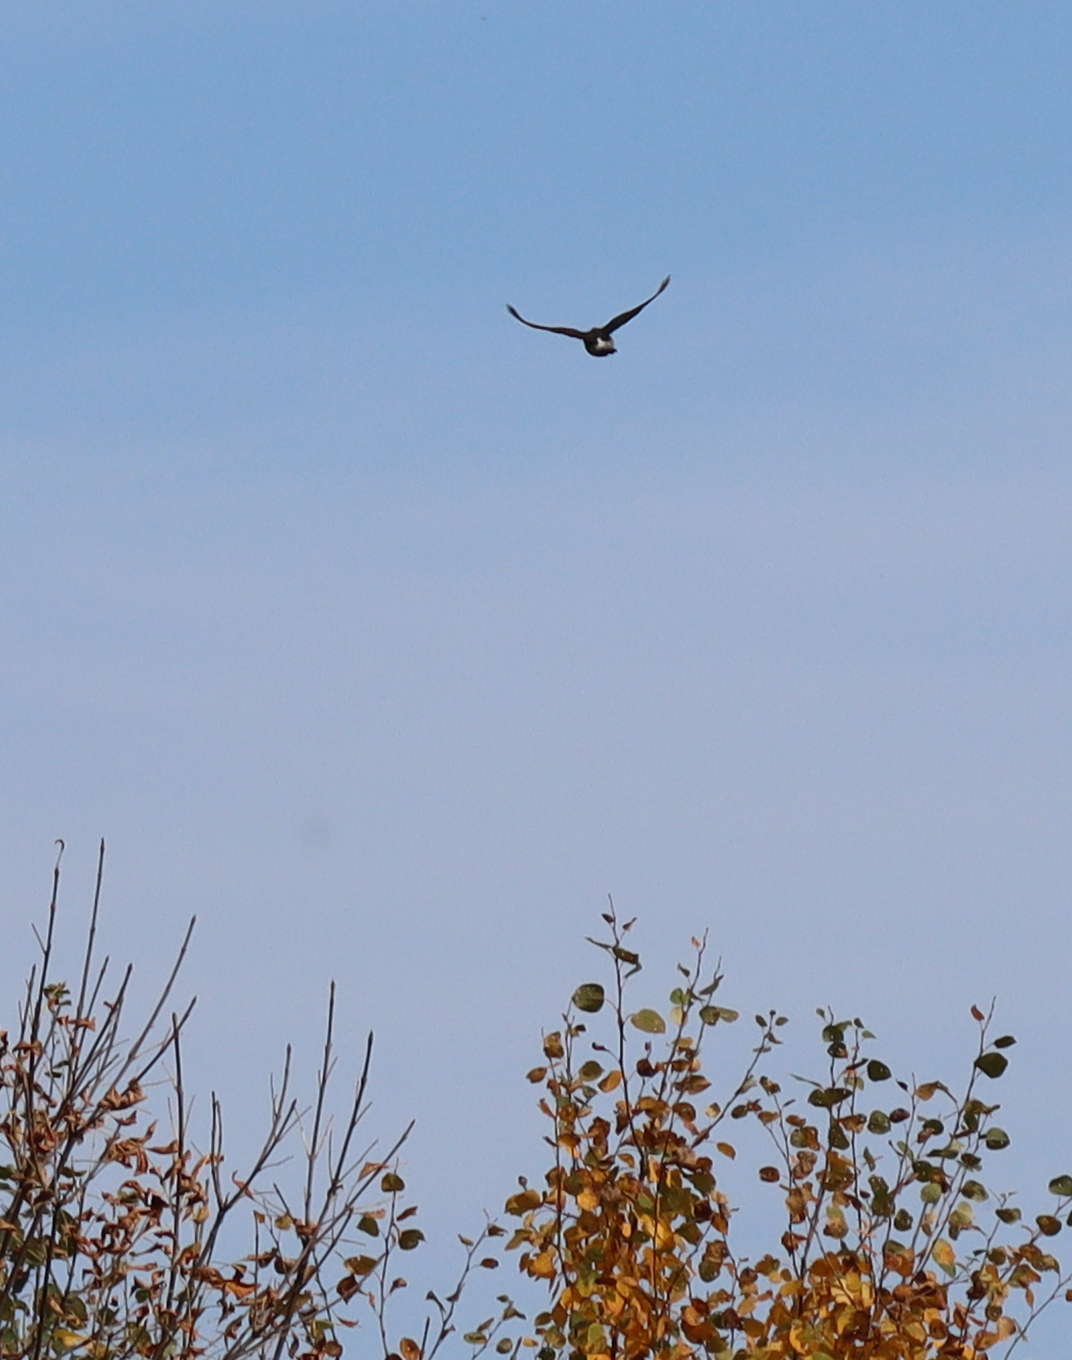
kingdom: Animalia
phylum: Chordata
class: Aves
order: Piciformes
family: Picidae
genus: Colaptes
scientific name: Colaptes auratus
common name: Northern flicker
